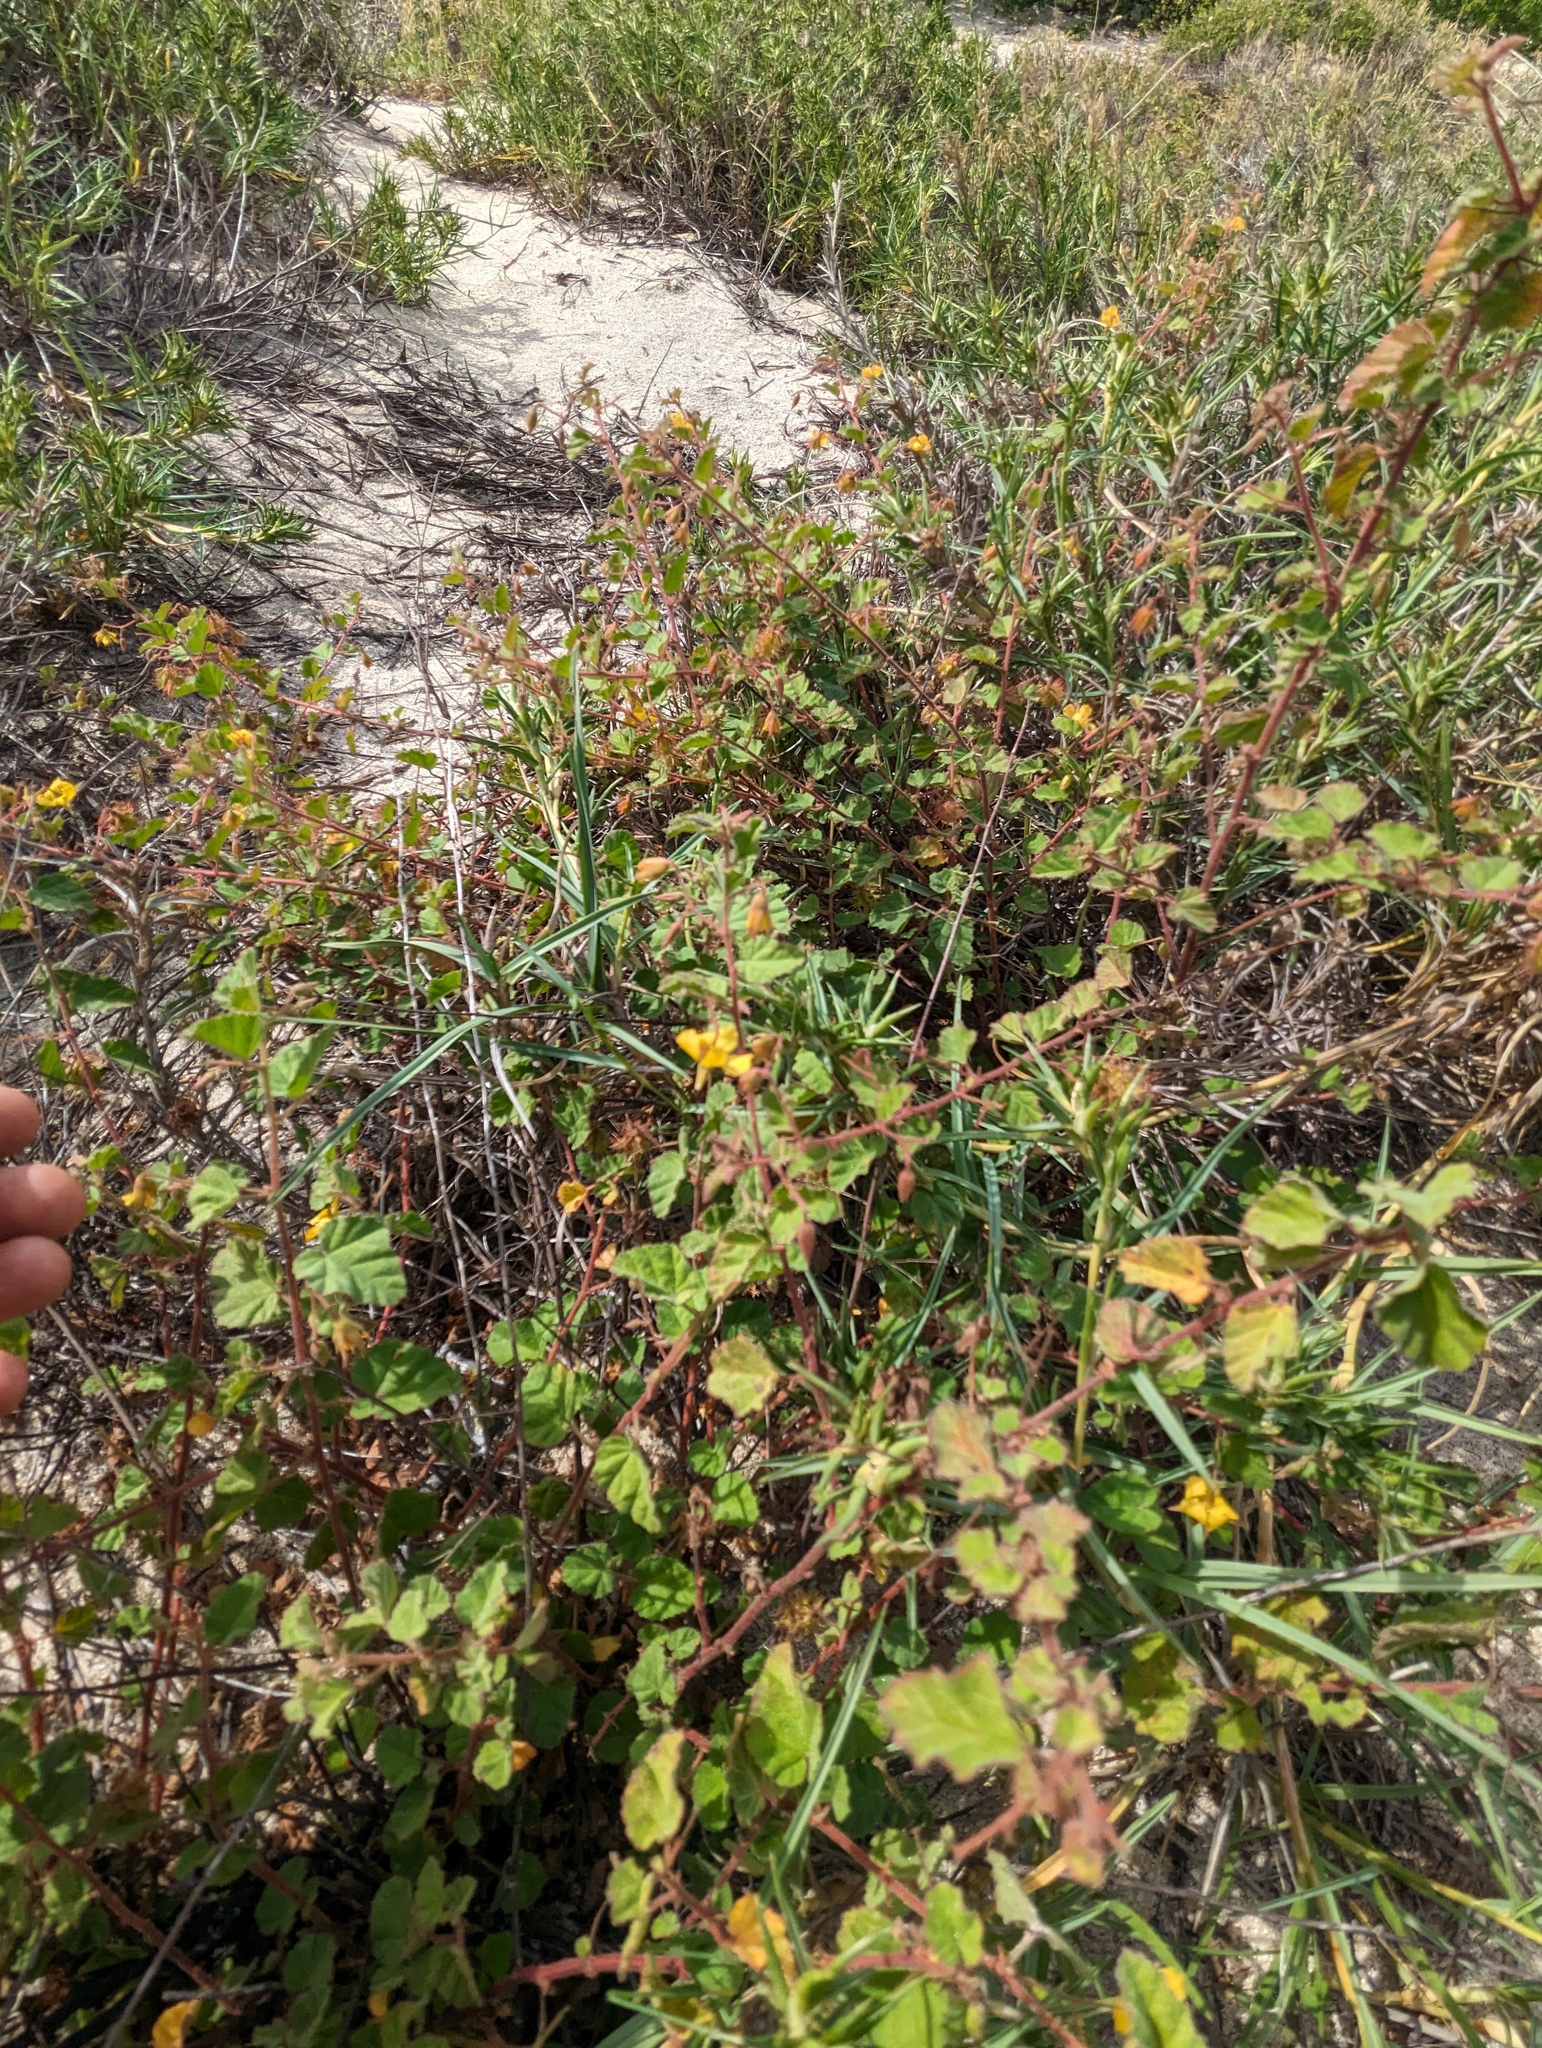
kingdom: Plantae
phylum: Tracheophyta
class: Magnoliopsida
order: Malvales
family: Malvaceae
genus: Hermannia
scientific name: Hermannia palmeri
